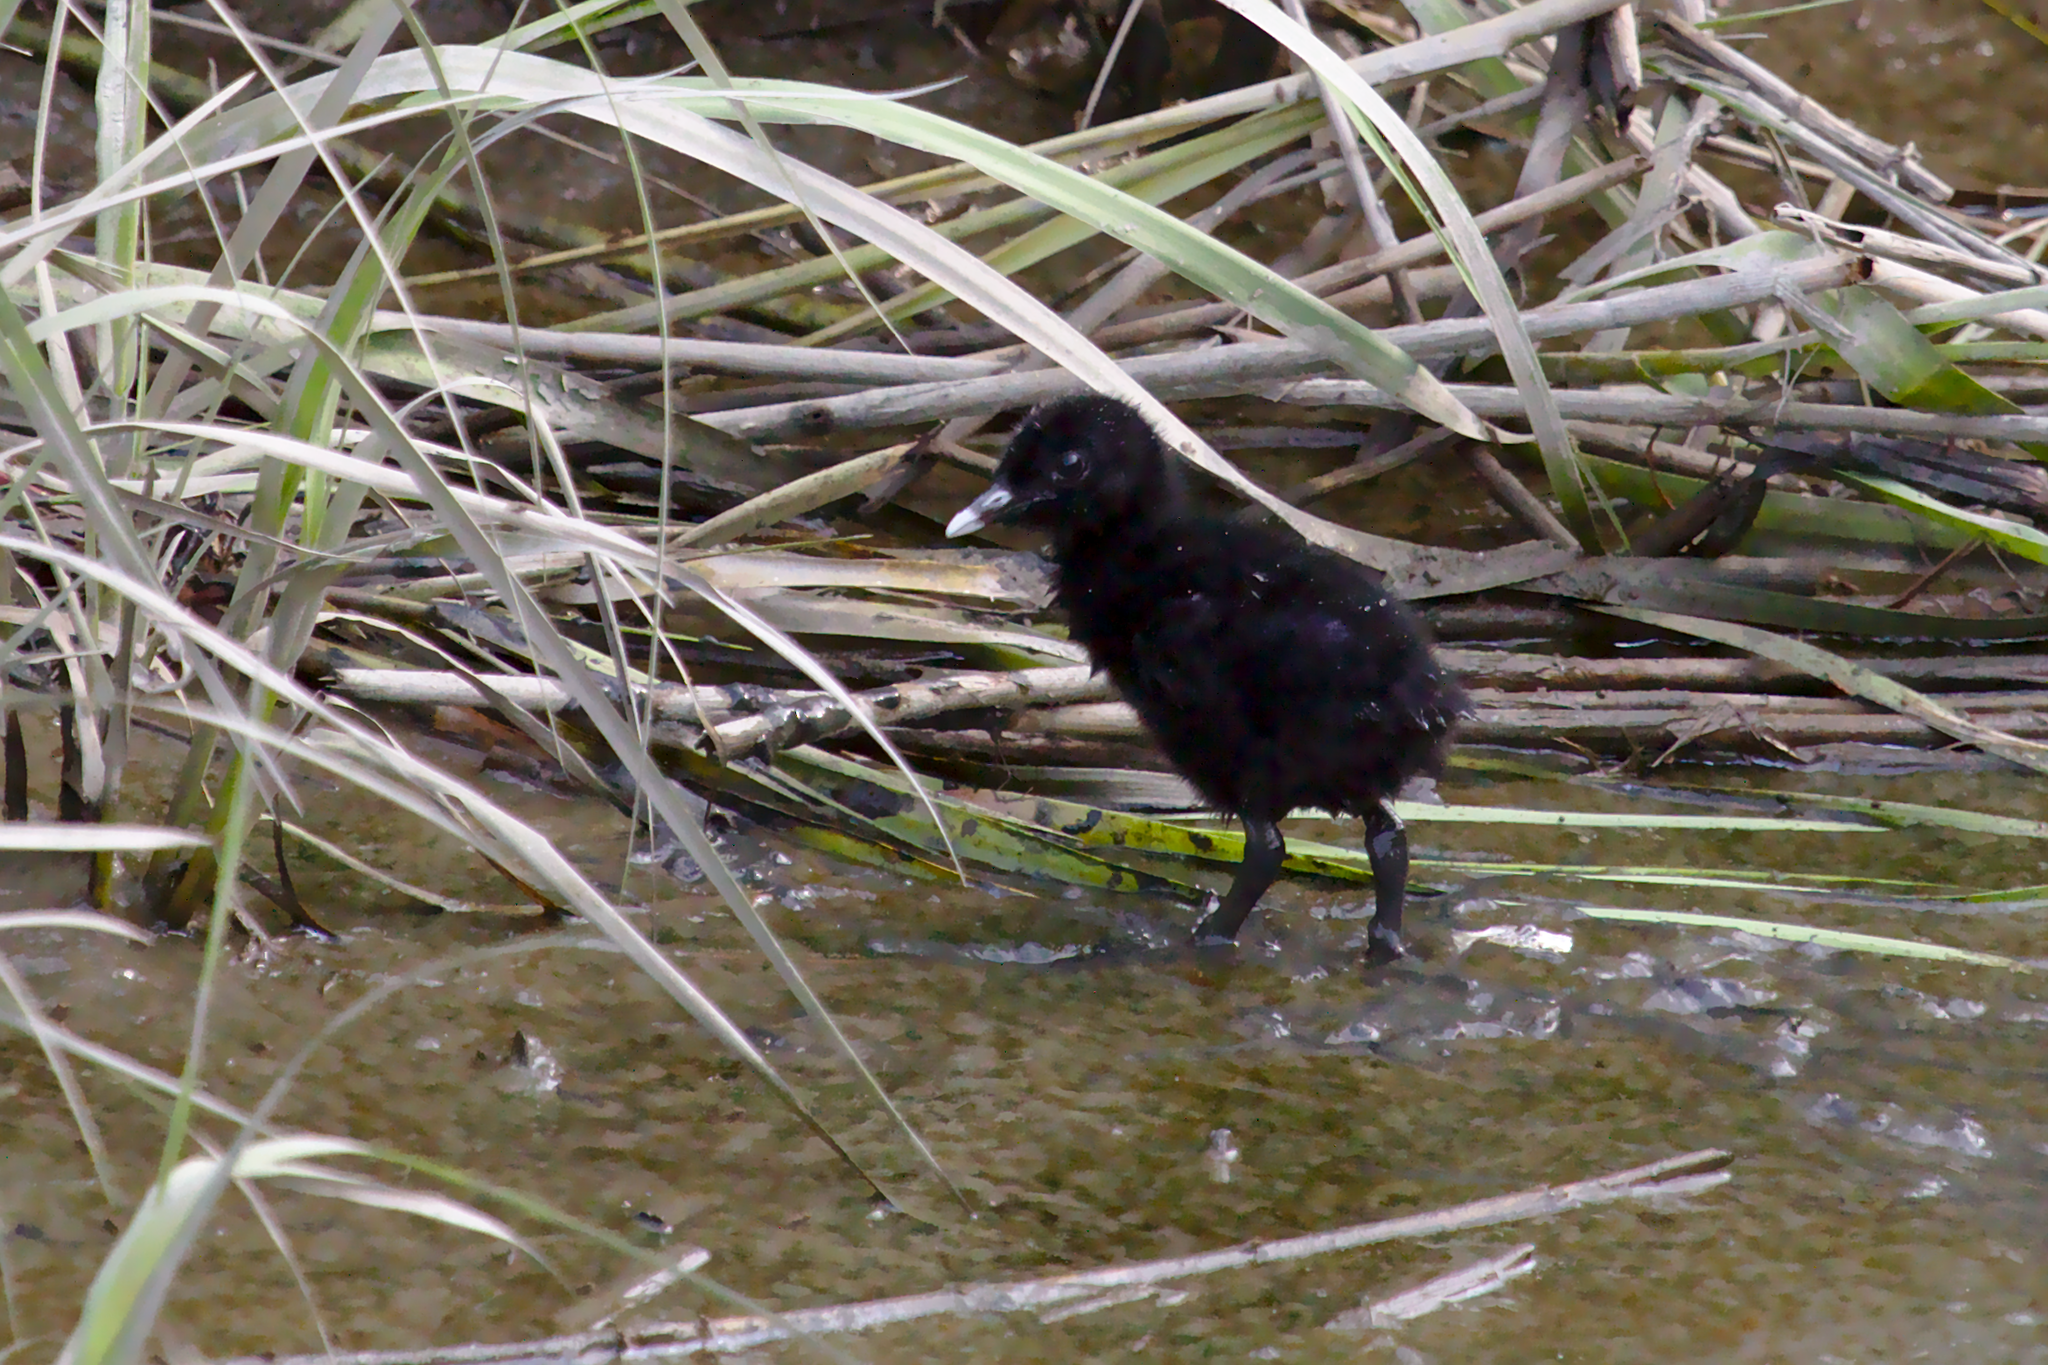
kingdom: Animalia
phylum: Chordata
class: Aves
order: Gruiformes
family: Rallidae
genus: Rallus
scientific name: Rallus crepitans
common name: Clapper rail
